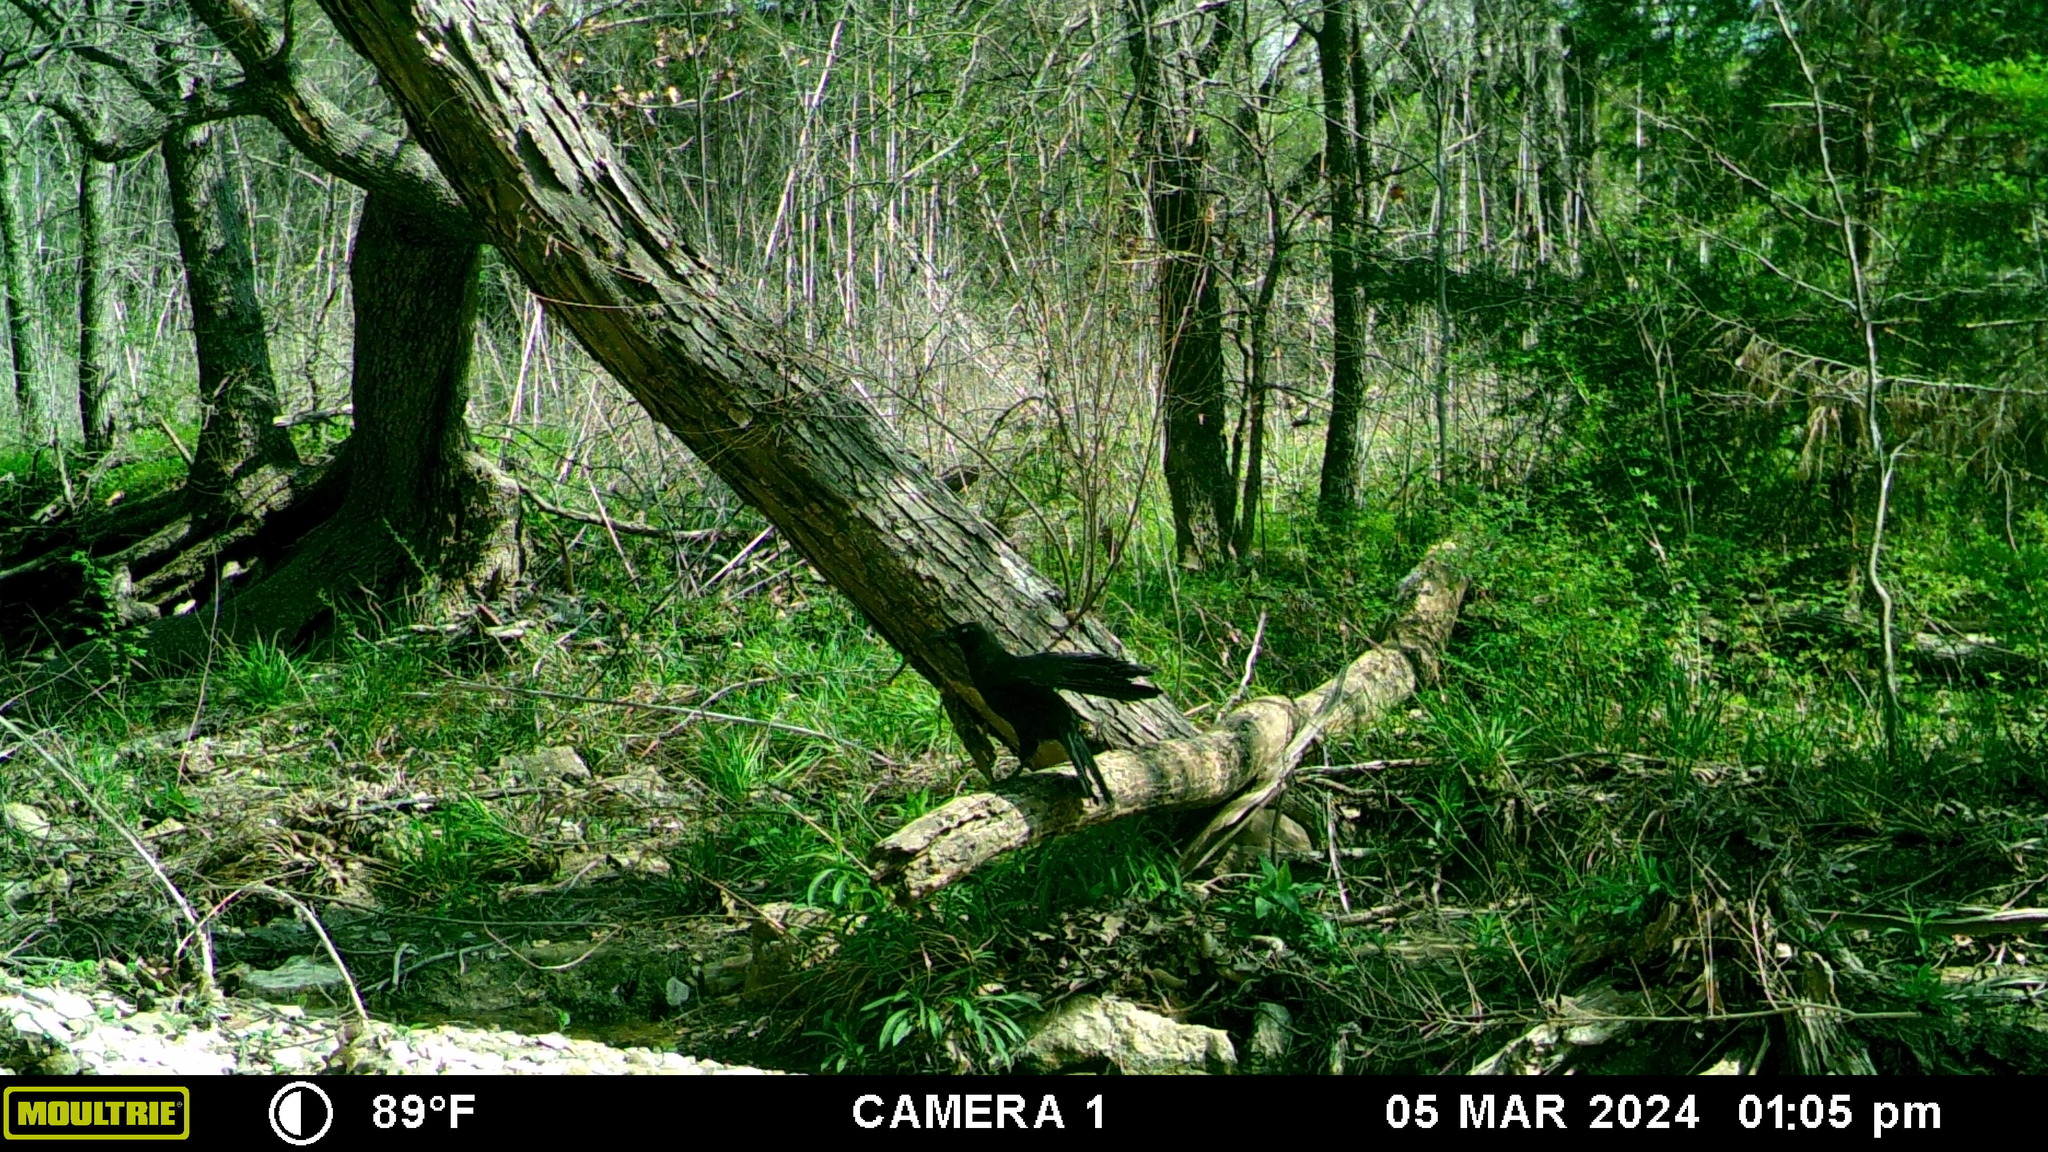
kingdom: Animalia
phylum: Chordata
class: Aves
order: Passeriformes
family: Corvidae
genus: Corvus
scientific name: Corvus brachyrhynchos
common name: American crow
